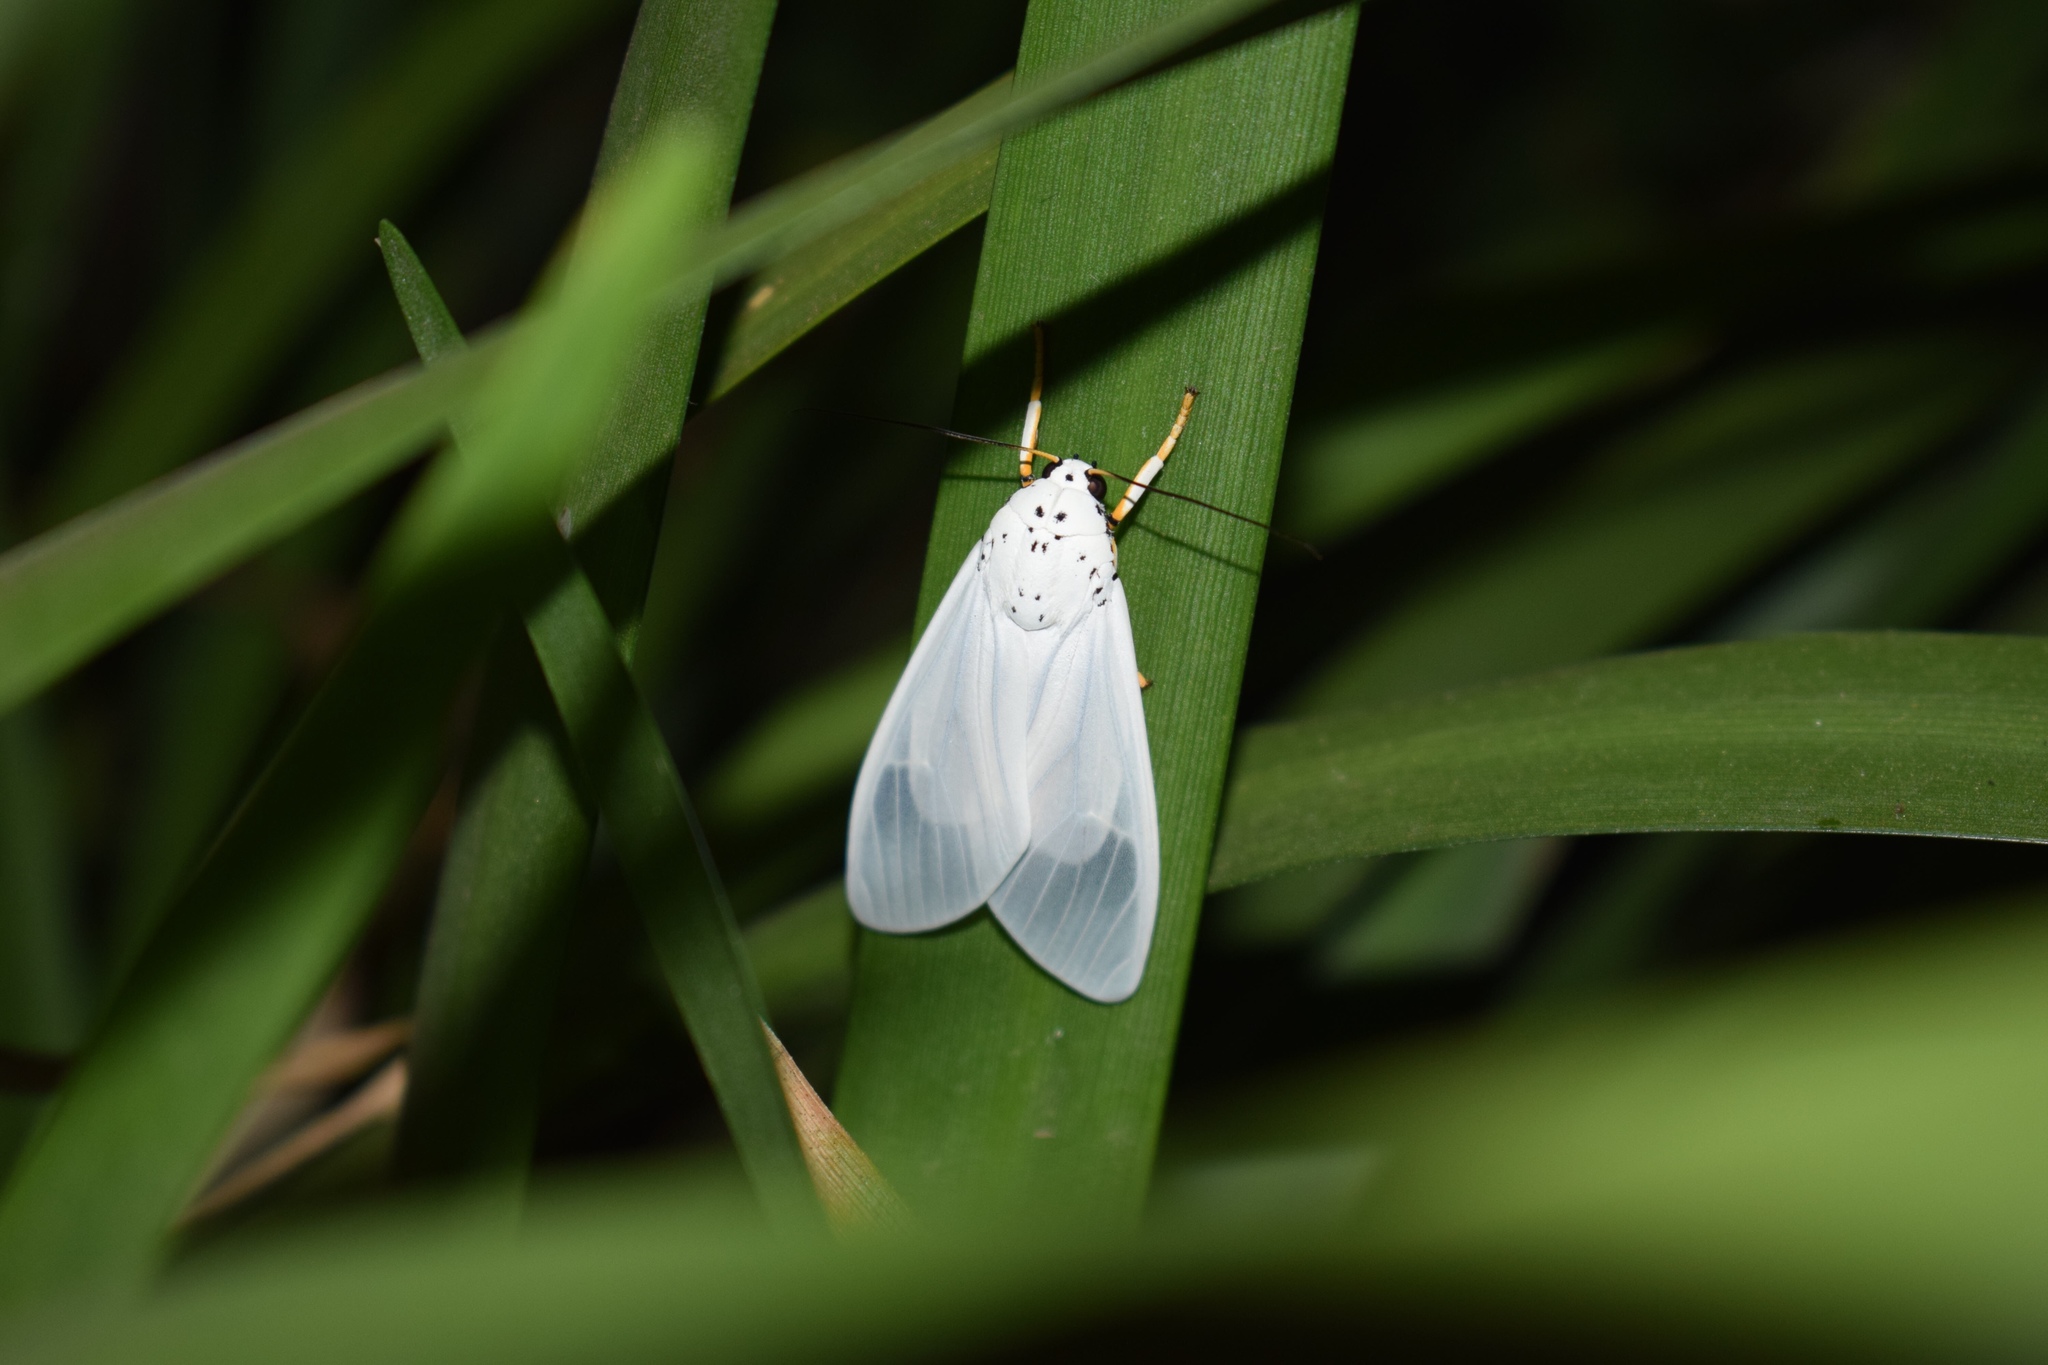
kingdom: Animalia
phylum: Arthropoda
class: Insecta
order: Lepidoptera
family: Erebidae
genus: Amerila
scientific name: Amerila bubo
